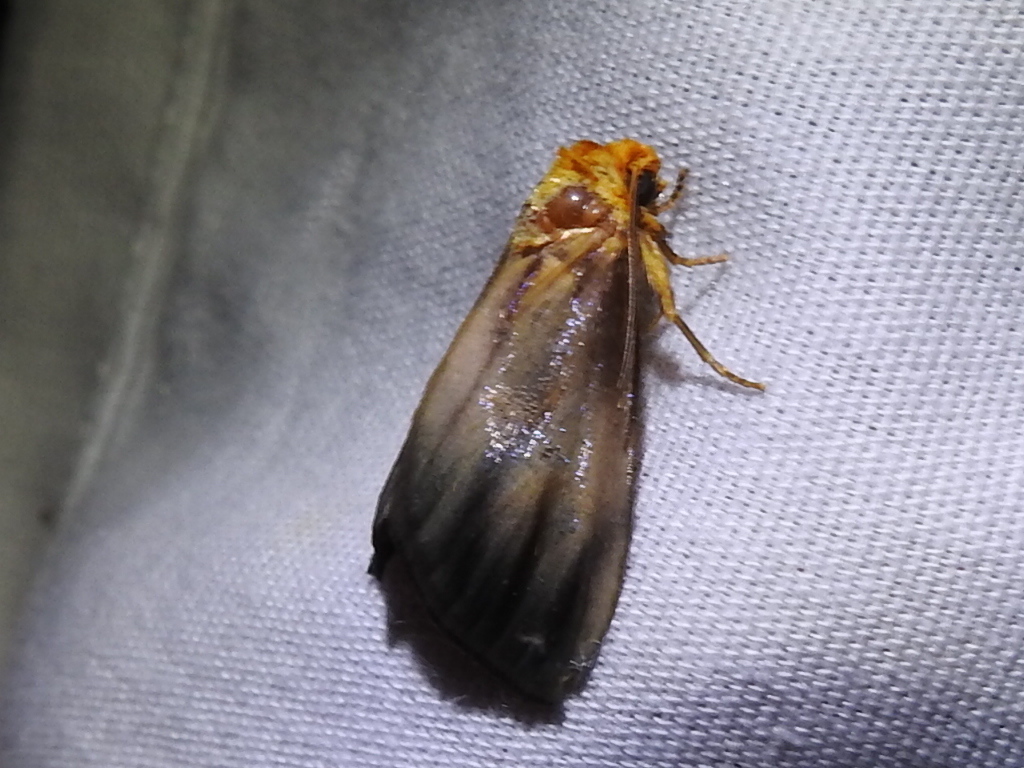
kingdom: Animalia
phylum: Arthropoda
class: Insecta
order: Lepidoptera
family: Noctuidae
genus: Antaplaga
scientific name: Antaplaga plesioglauca
